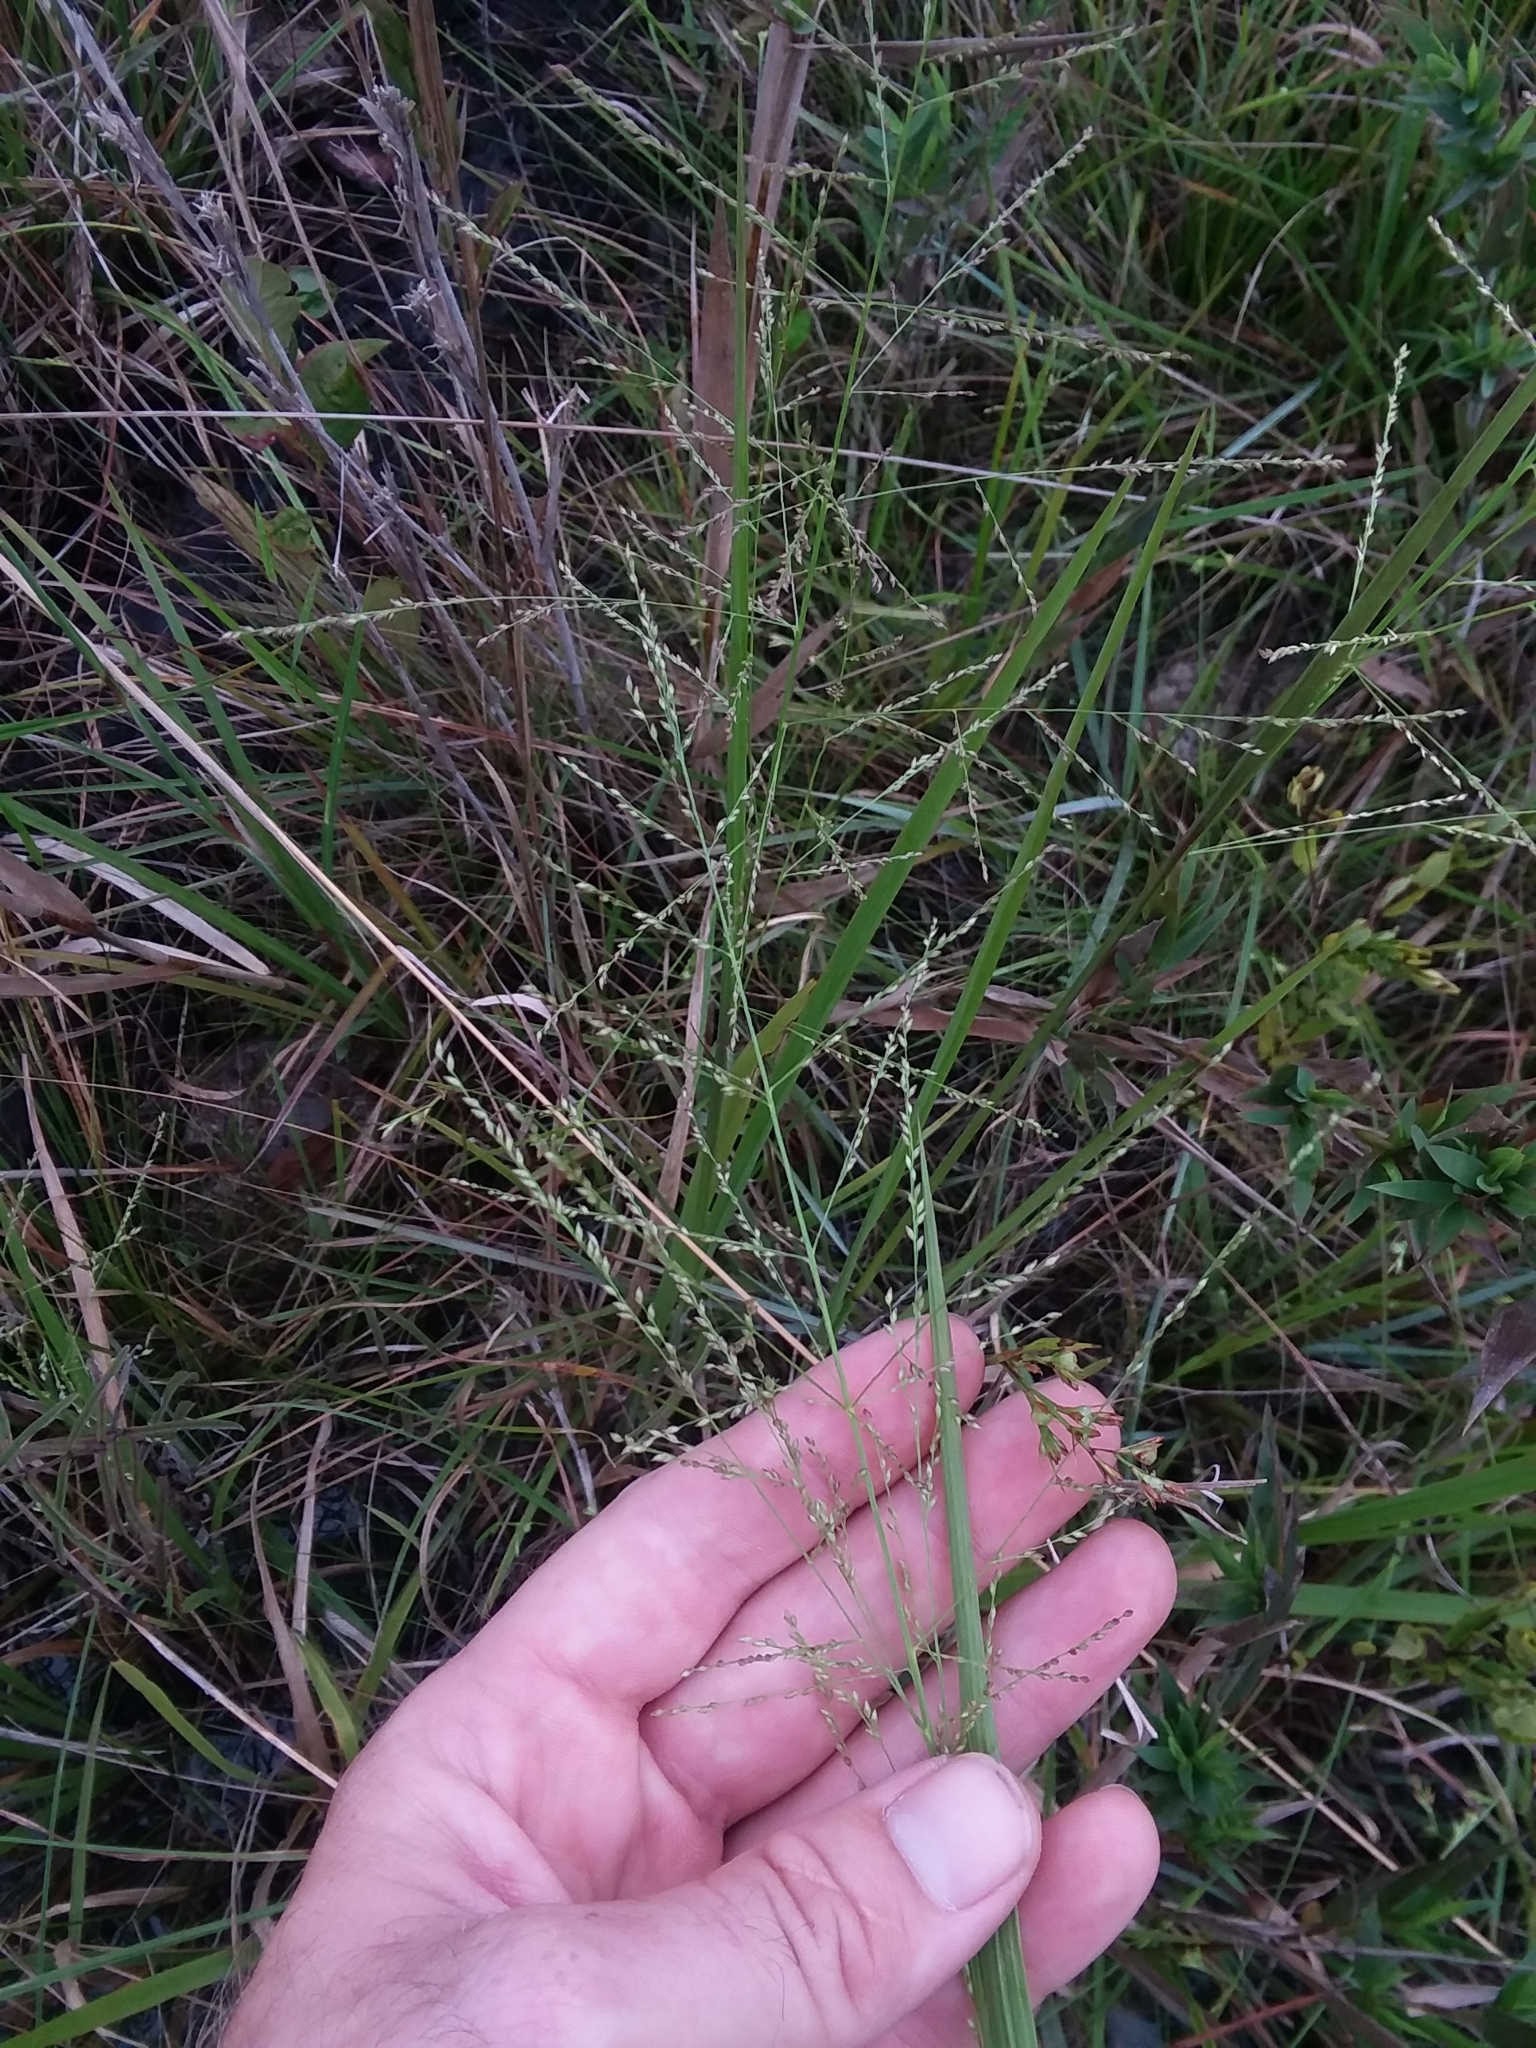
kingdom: Plantae
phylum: Tracheophyta
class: Liliopsida
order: Poales
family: Poaceae
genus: Coleataenia
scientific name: Coleataenia longifolia
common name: Long-leaved panicgrass
